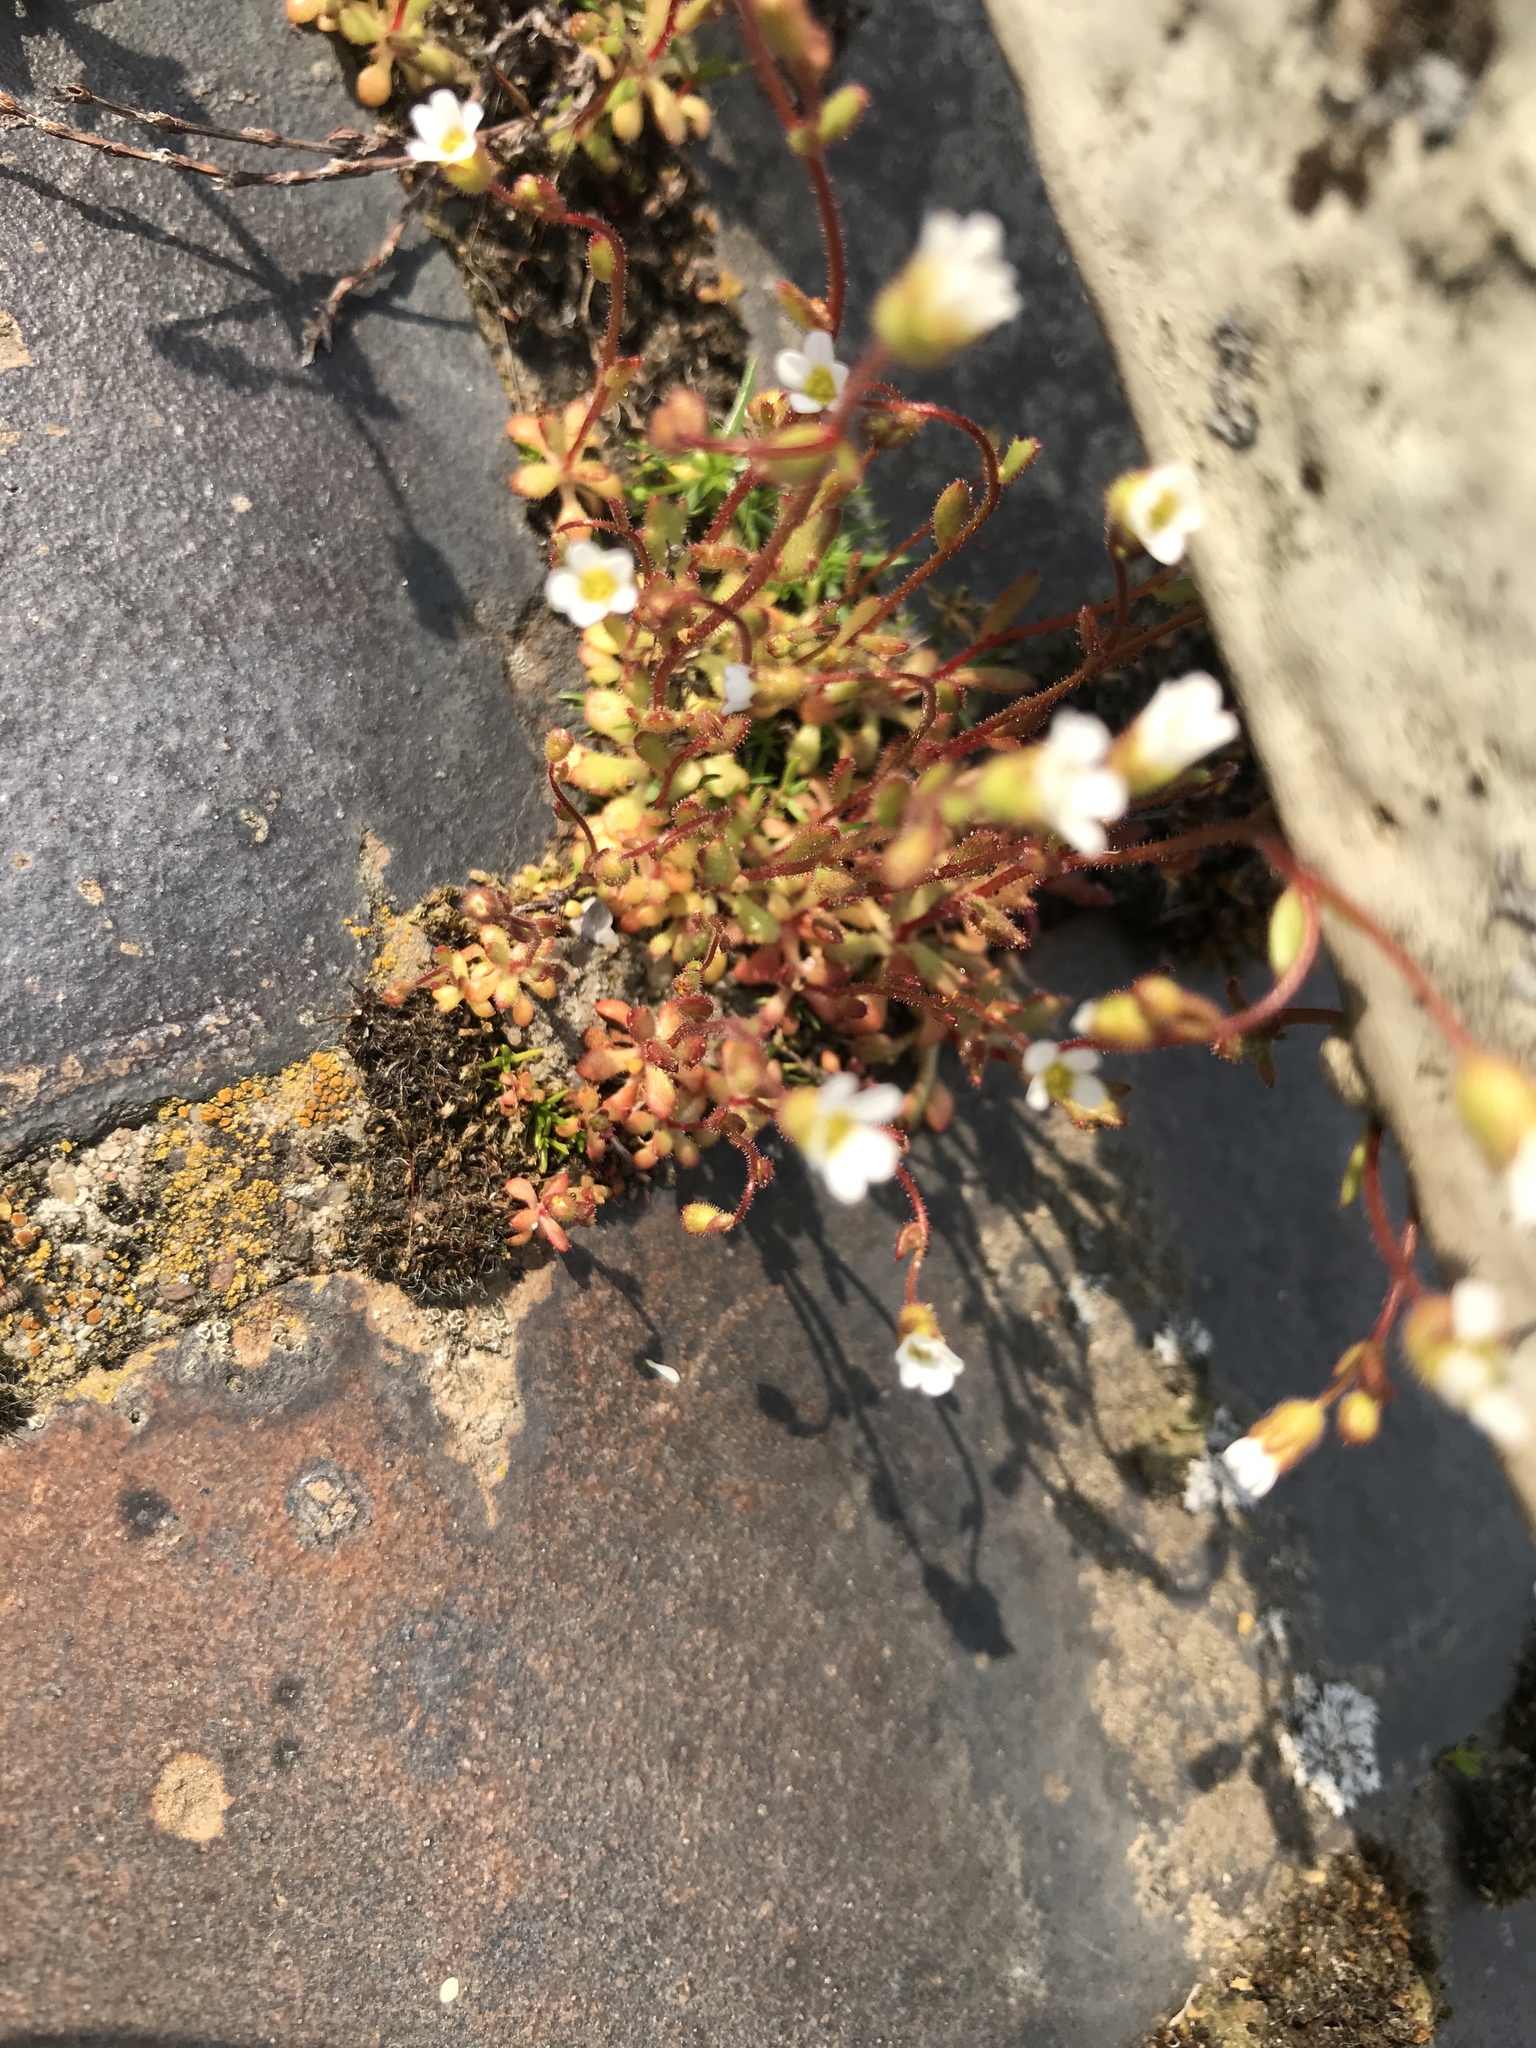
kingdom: Plantae
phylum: Tracheophyta
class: Magnoliopsida
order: Saxifragales
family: Saxifragaceae
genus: Saxifraga
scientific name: Saxifraga tridactylites
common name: Rue-leaved saxifrage
